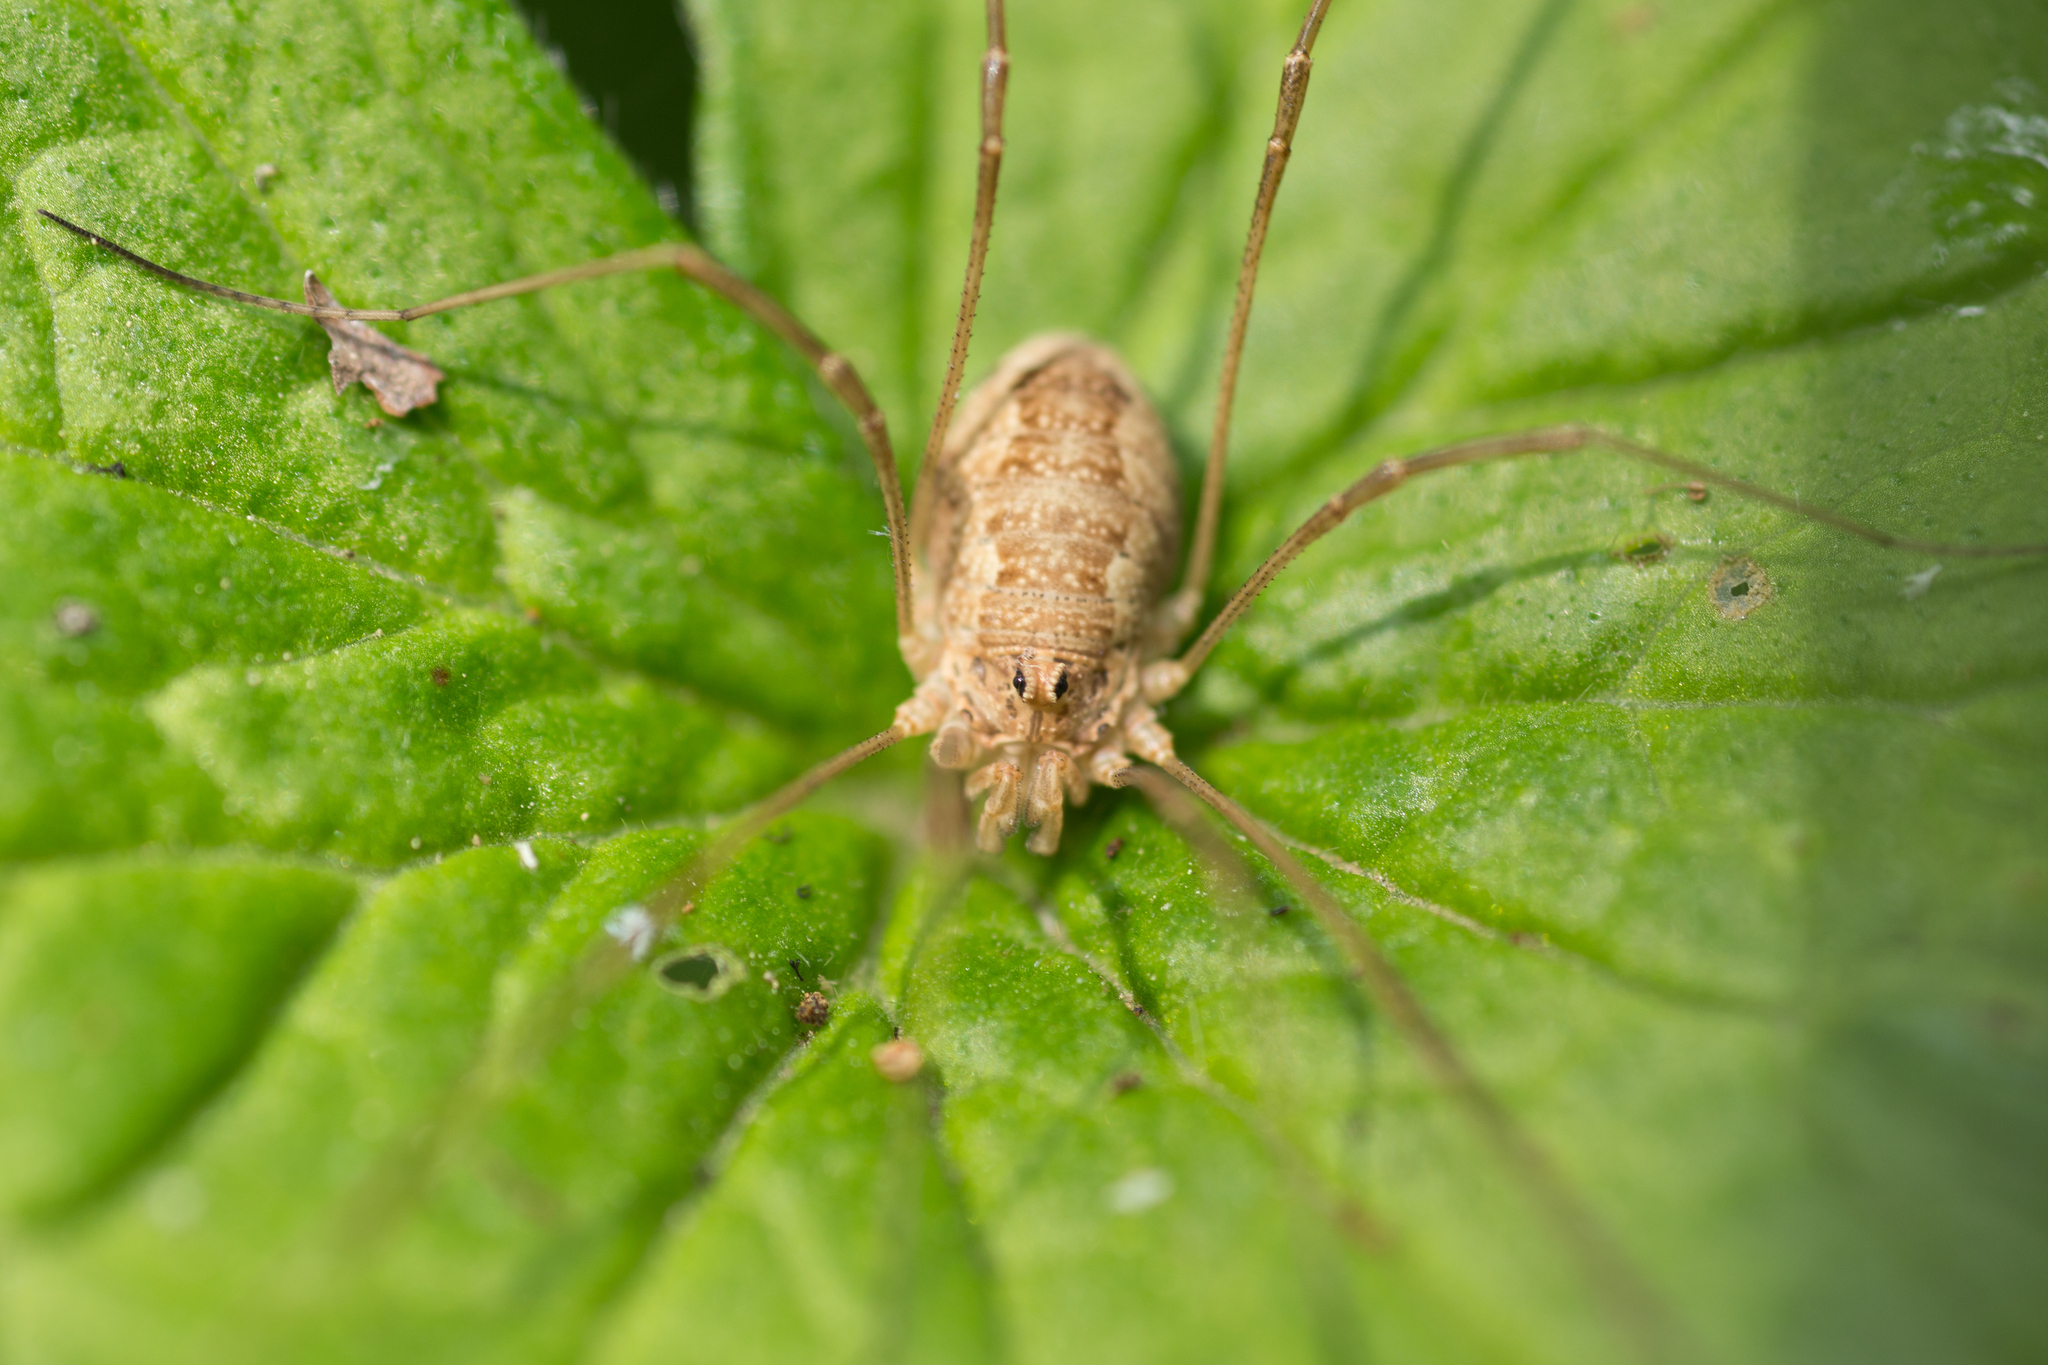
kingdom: Animalia
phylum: Arthropoda
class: Arachnida
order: Opiliones
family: Phalangiidae
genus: Rilaena
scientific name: Rilaena triangularis
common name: Spring harvestman
